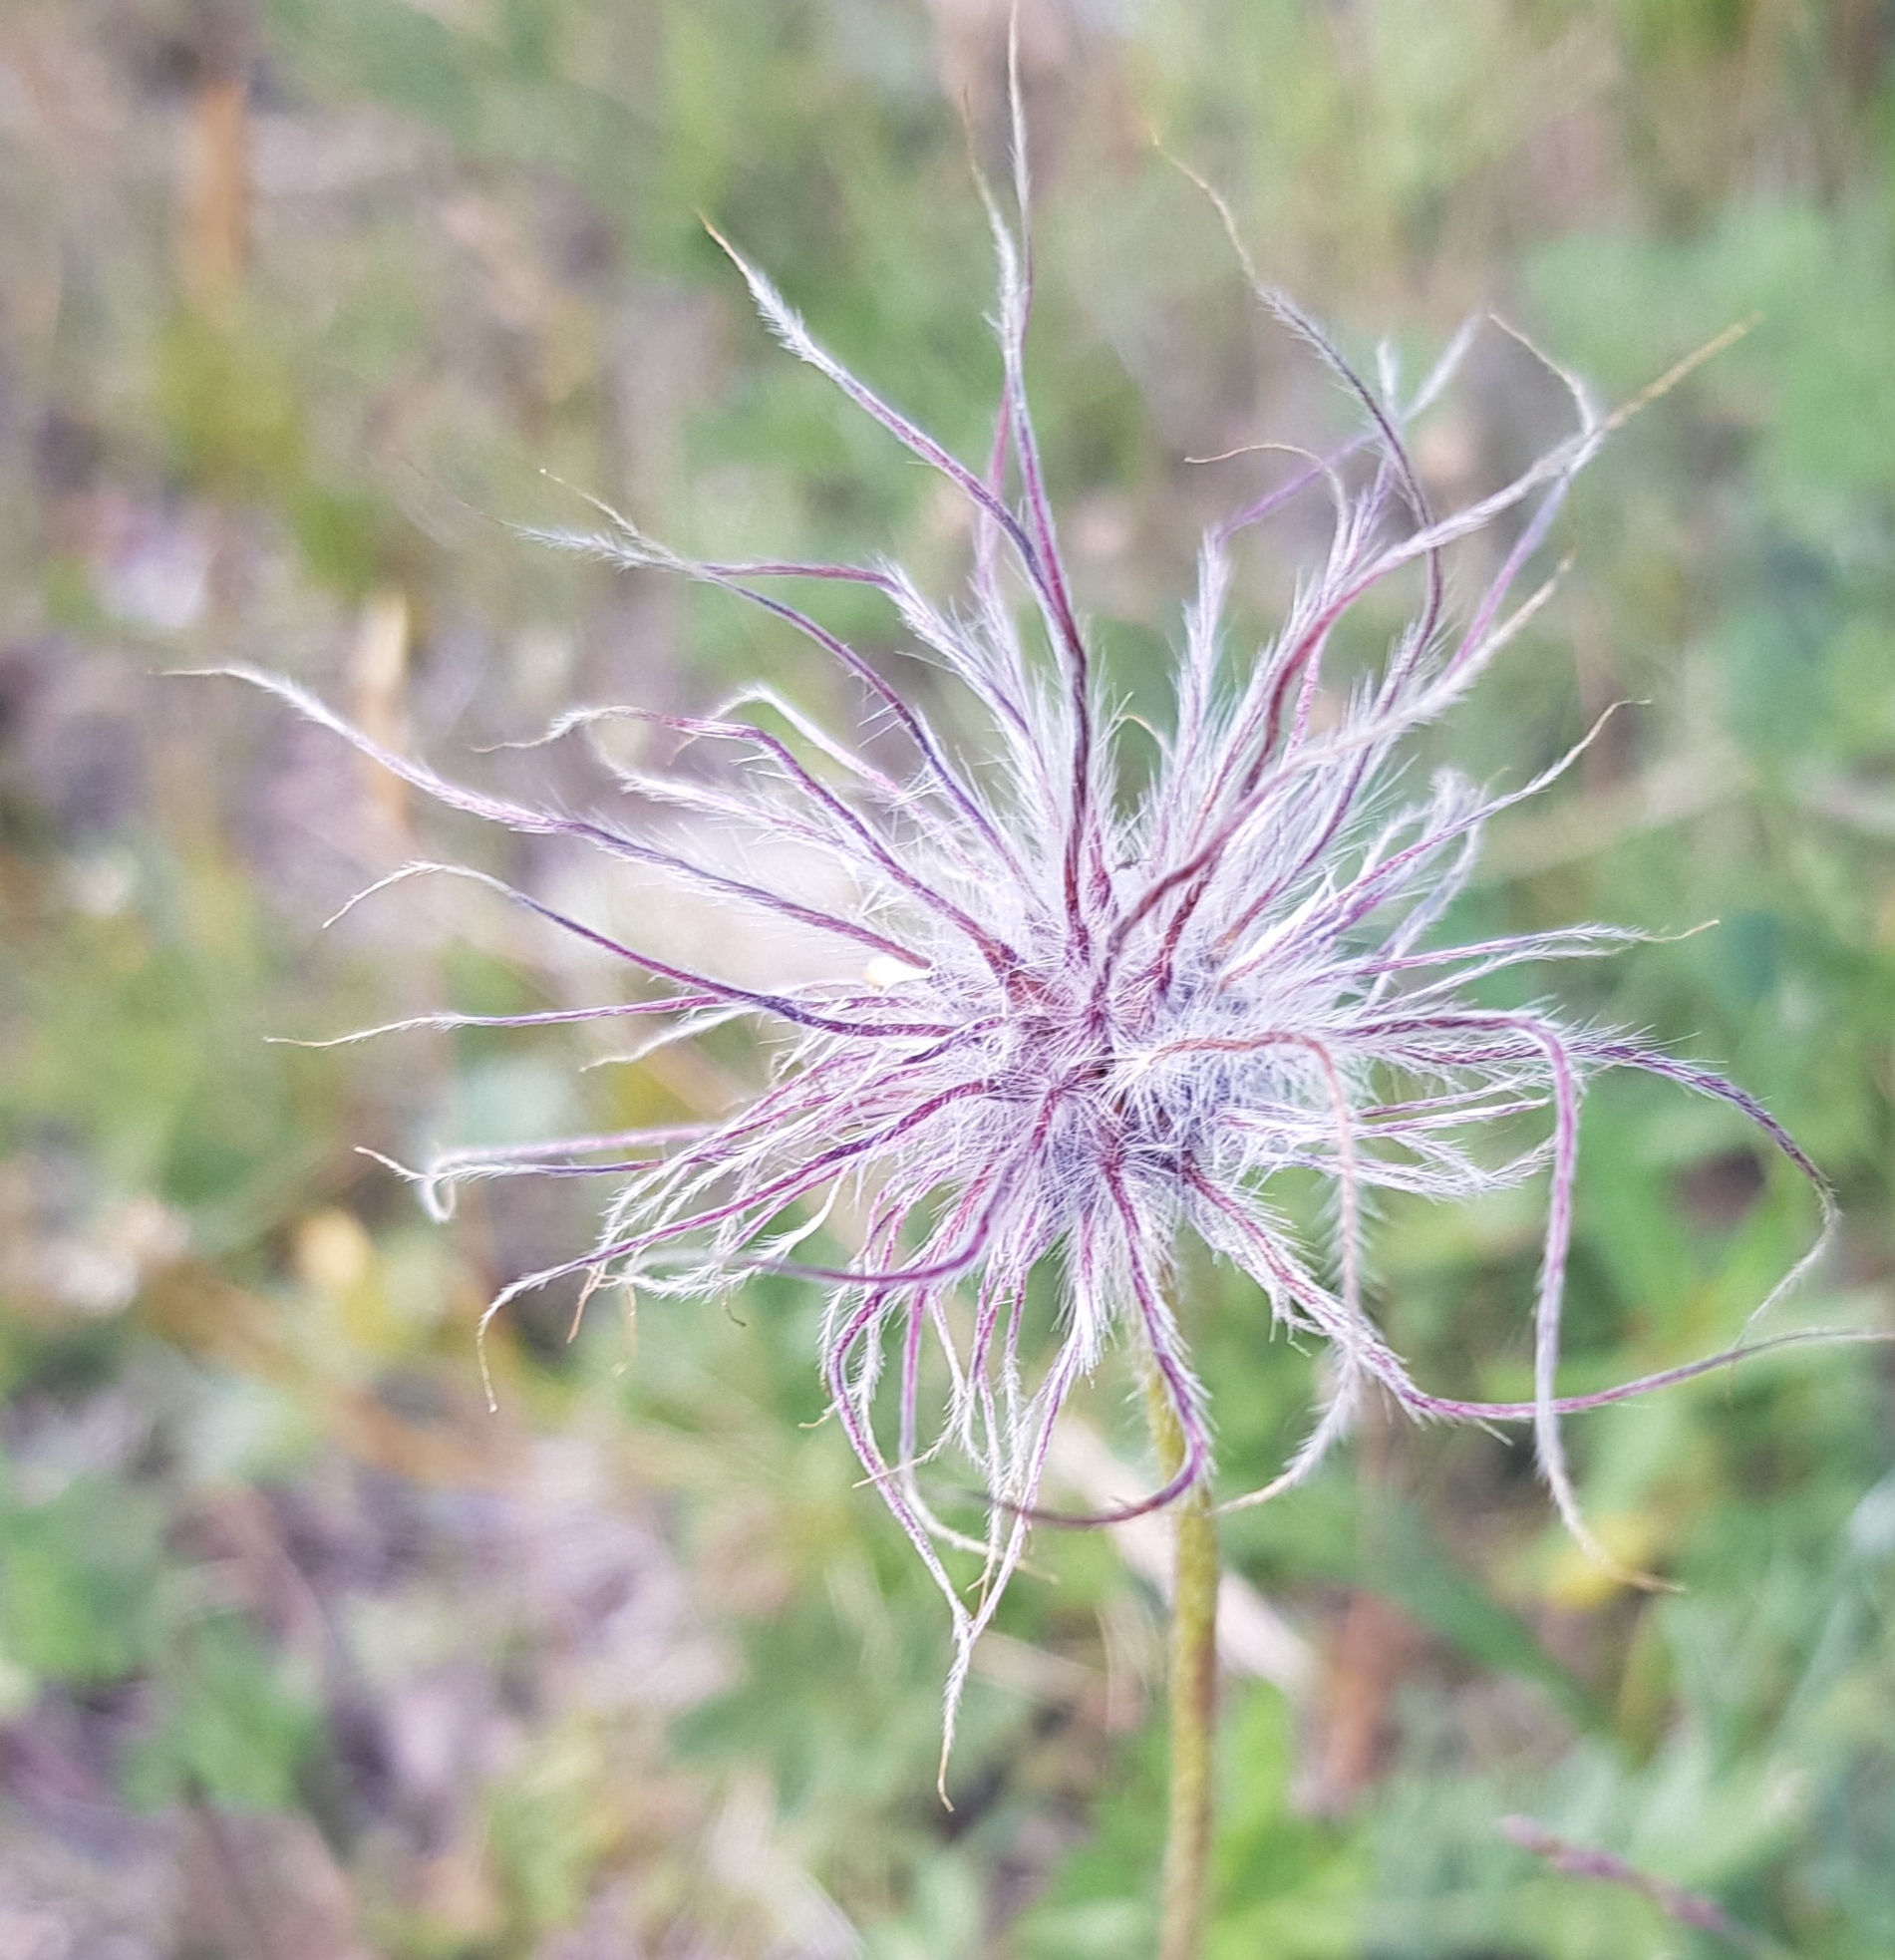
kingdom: Plantae
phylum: Tracheophyta
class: Magnoliopsida
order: Ranunculales
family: Ranunculaceae
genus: Pulsatilla
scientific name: Pulsatilla turczaninovii
